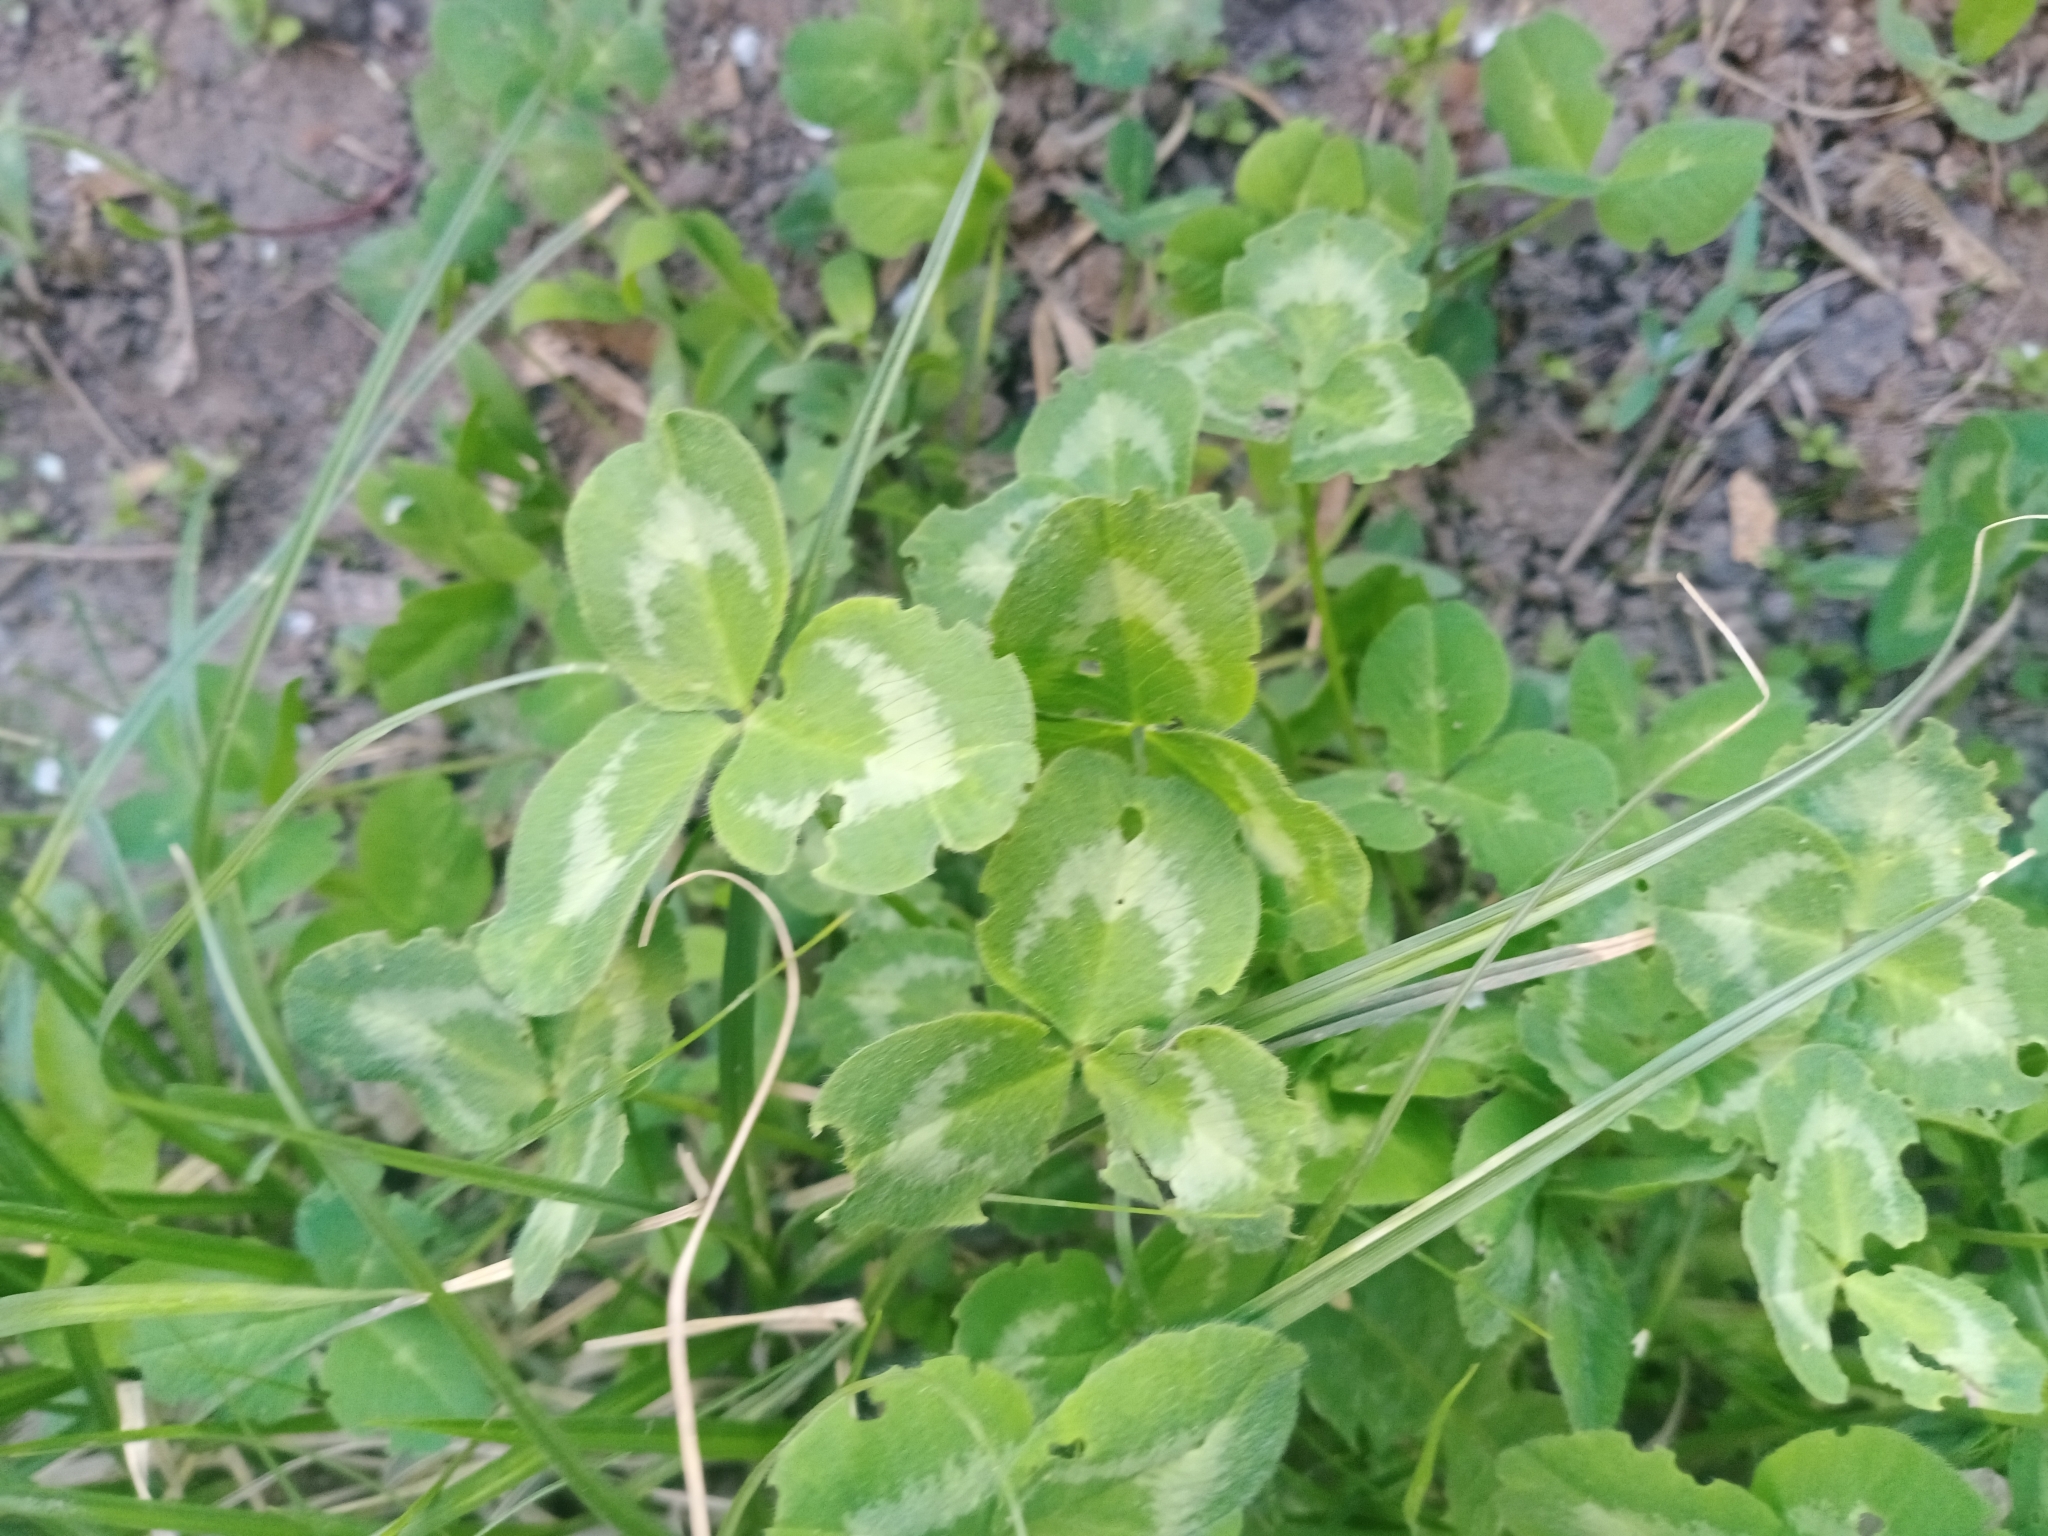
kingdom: Plantae
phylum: Tracheophyta
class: Magnoliopsida
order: Fabales
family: Fabaceae
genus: Trifolium
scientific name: Trifolium pratense
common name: Red clover
